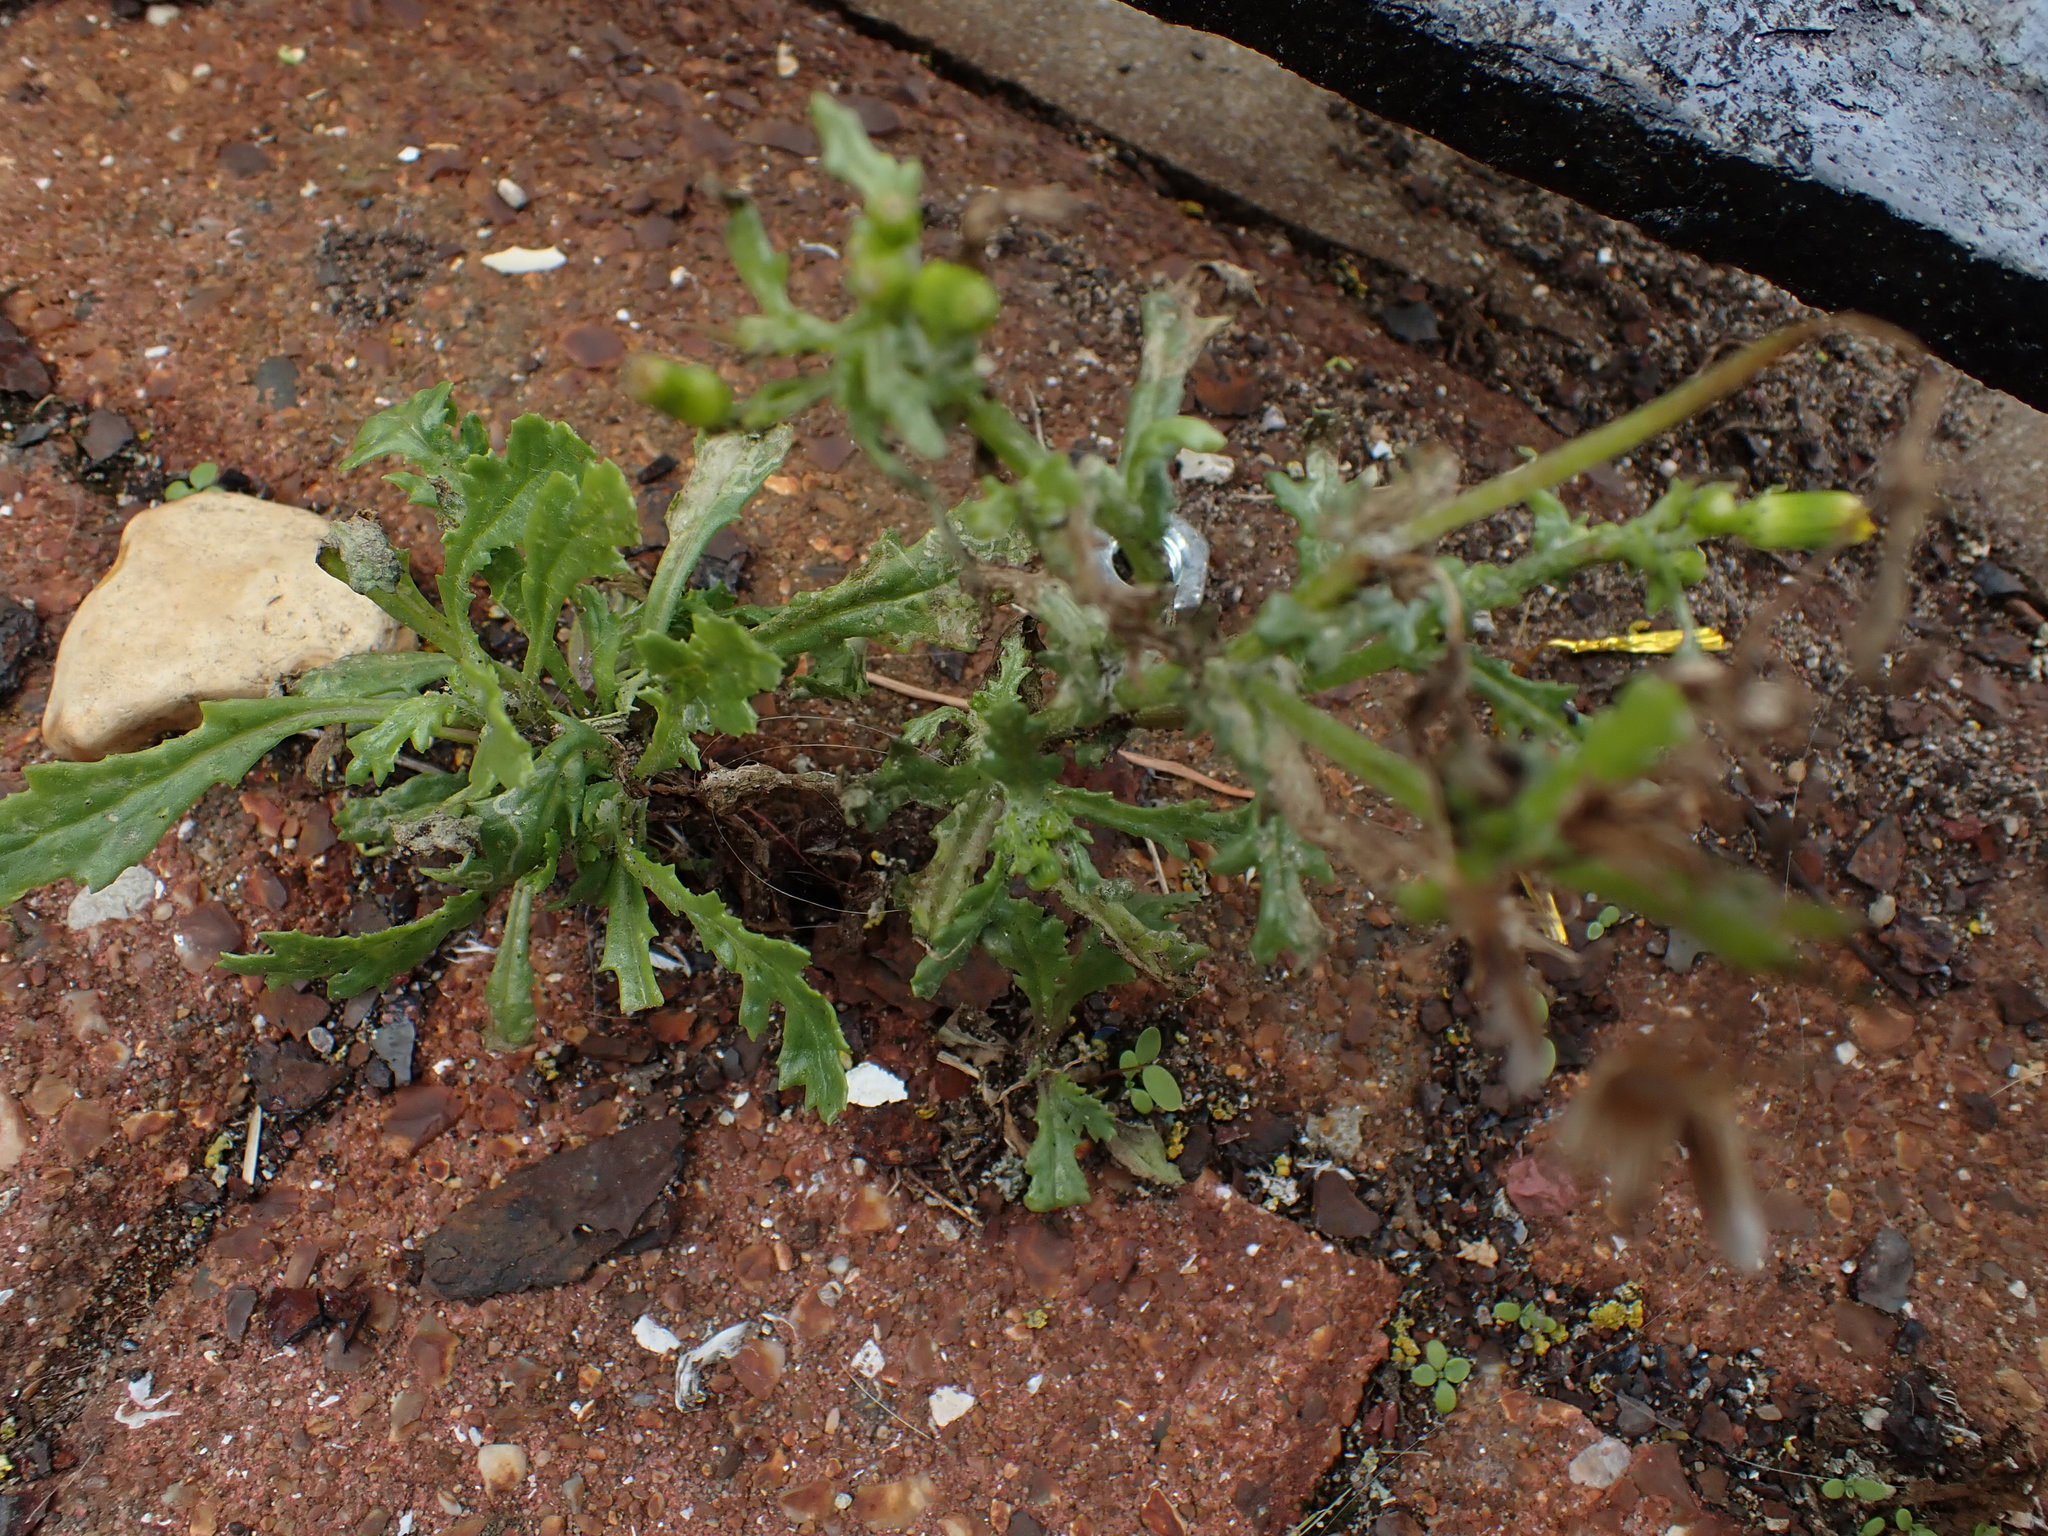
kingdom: Plantae
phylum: Tracheophyta
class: Magnoliopsida
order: Asterales
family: Asteraceae
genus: Senecio
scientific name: Senecio vulgaris
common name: Old-man-in-the-spring
